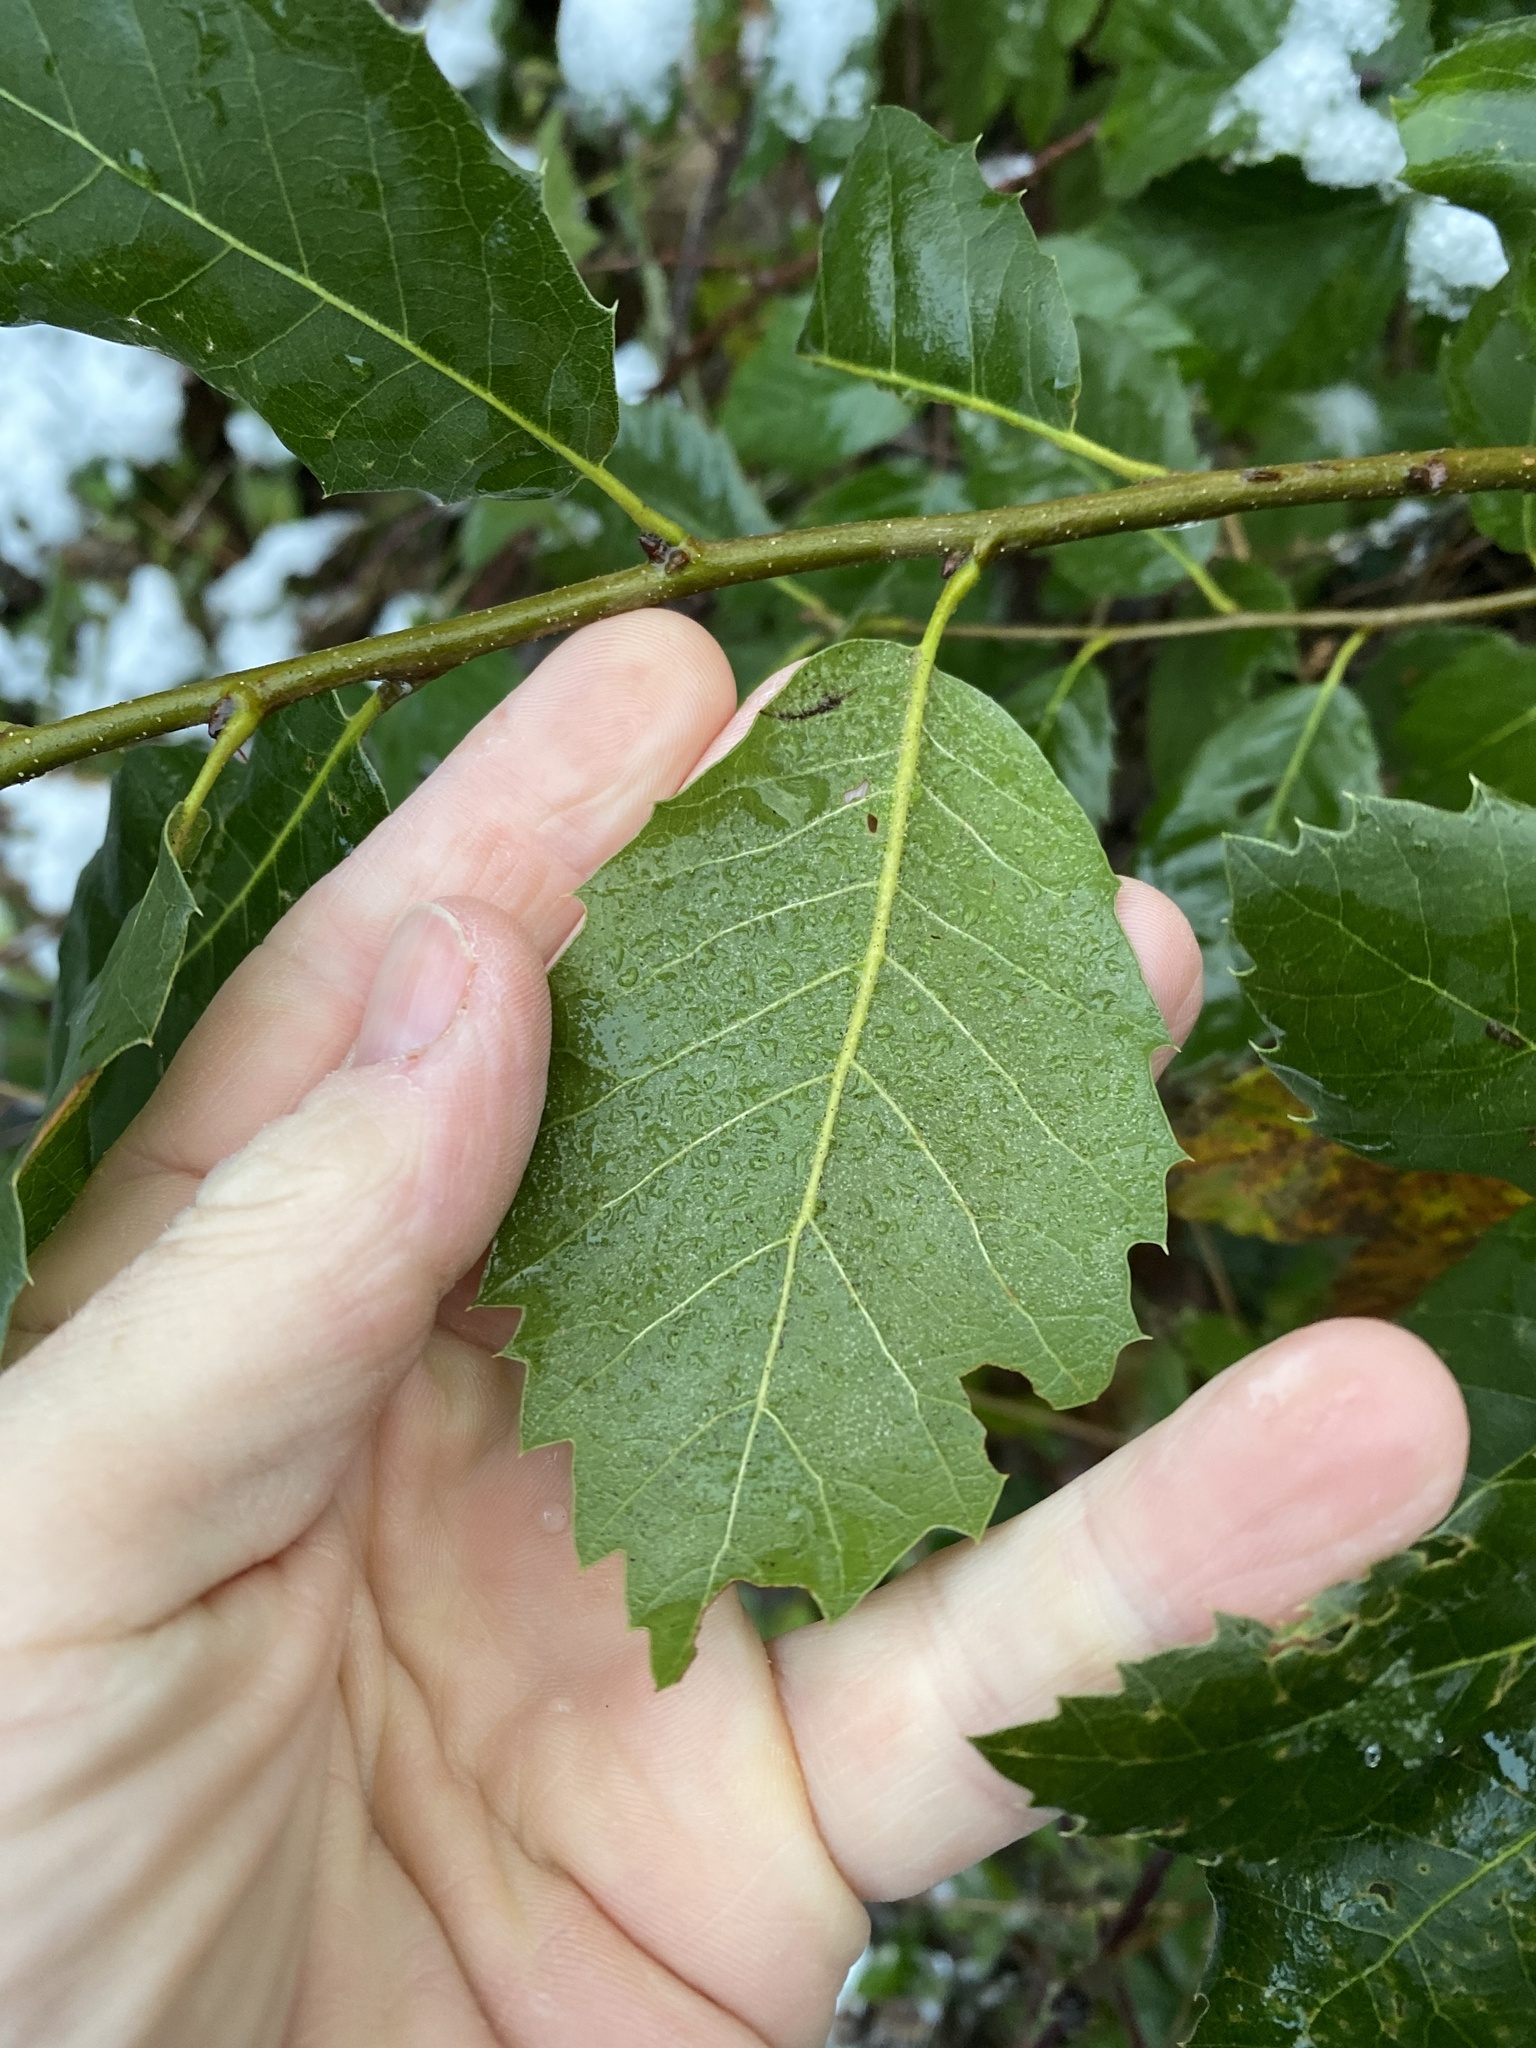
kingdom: Plantae
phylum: Tracheophyta
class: Magnoliopsida
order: Fagales
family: Fagaceae
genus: Quercus
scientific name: Quercus ilex
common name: Evergreen oak
